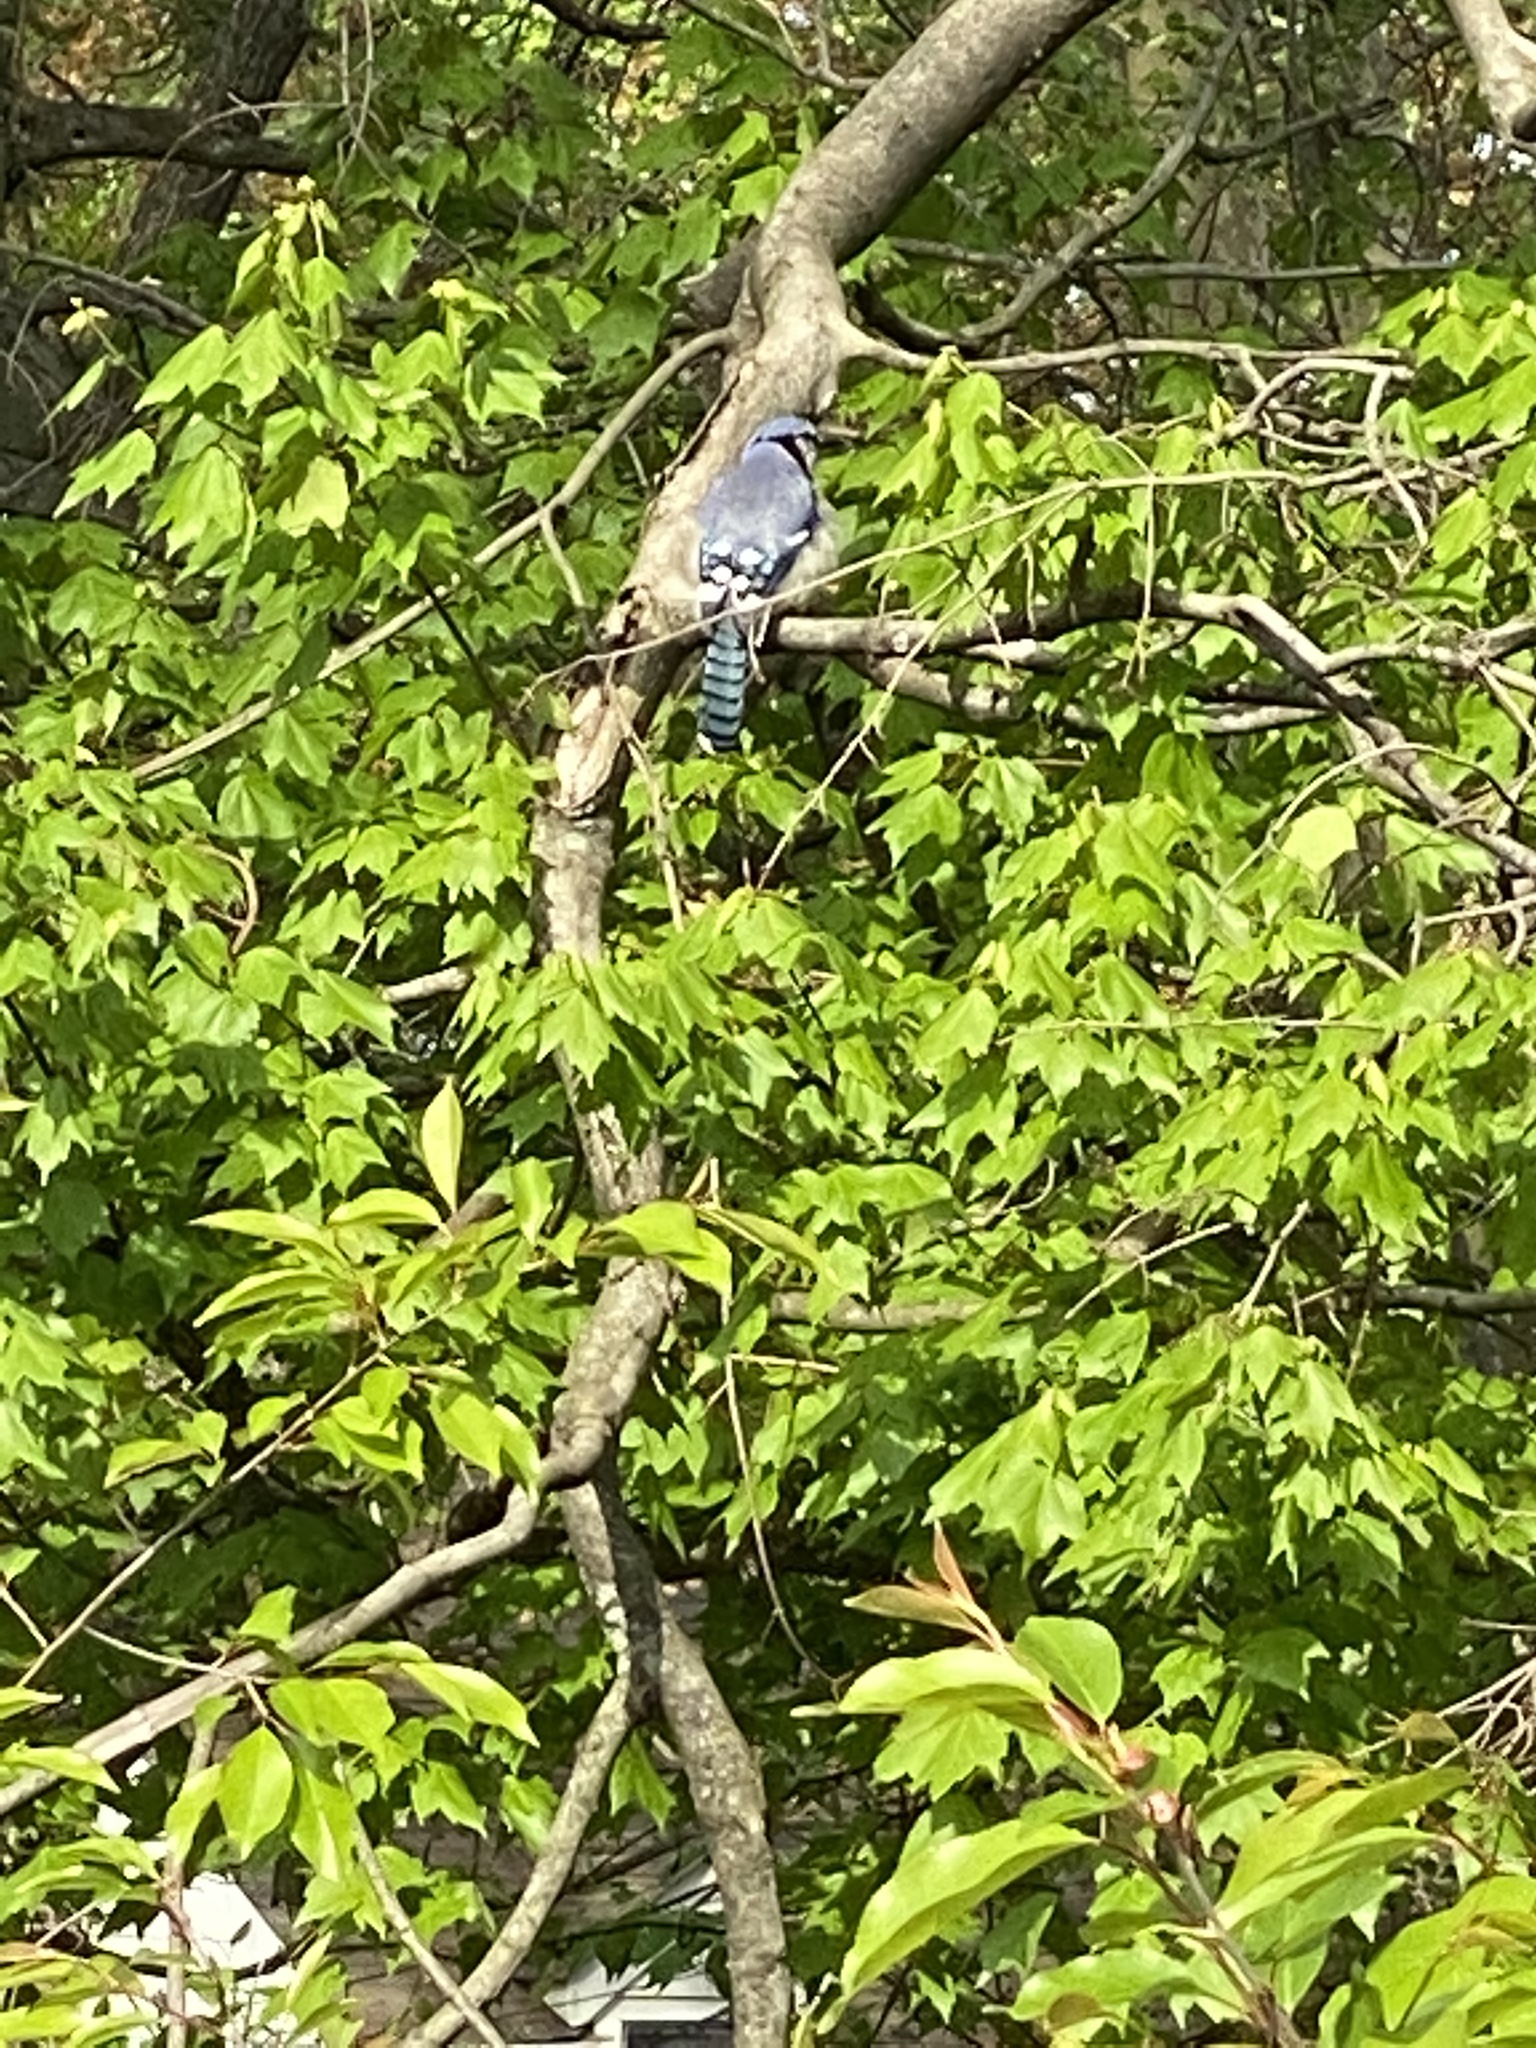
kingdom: Animalia
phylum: Chordata
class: Aves
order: Passeriformes
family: Corvidae
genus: Cyanocitta
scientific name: Cyanocitta cristata
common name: Blue jay
